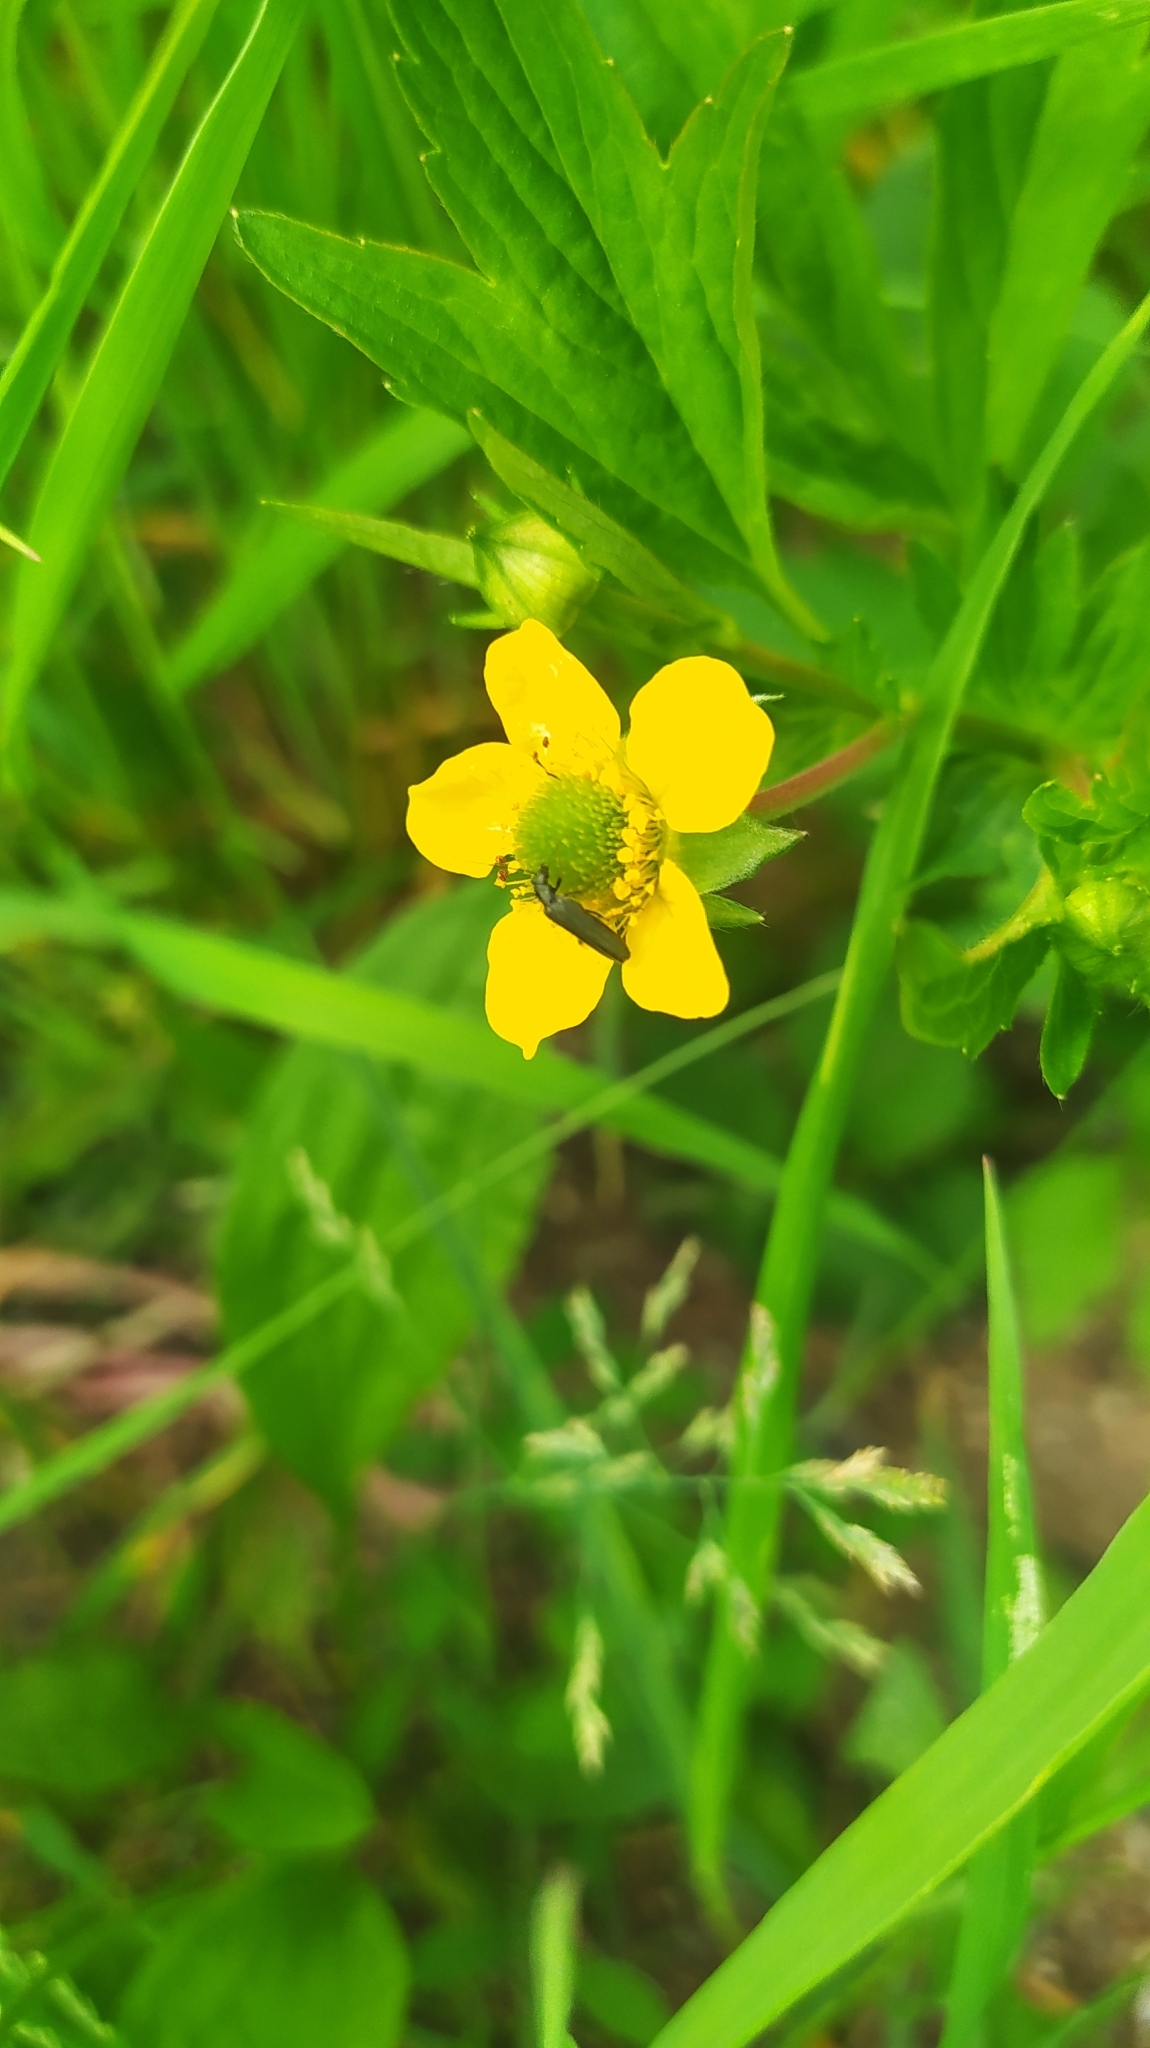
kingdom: Plantae
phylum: Tracheophyta
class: Magnoliopsida
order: Rosales
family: Rosaceae
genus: Geum
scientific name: Geum aleppicum
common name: Yellow avens
